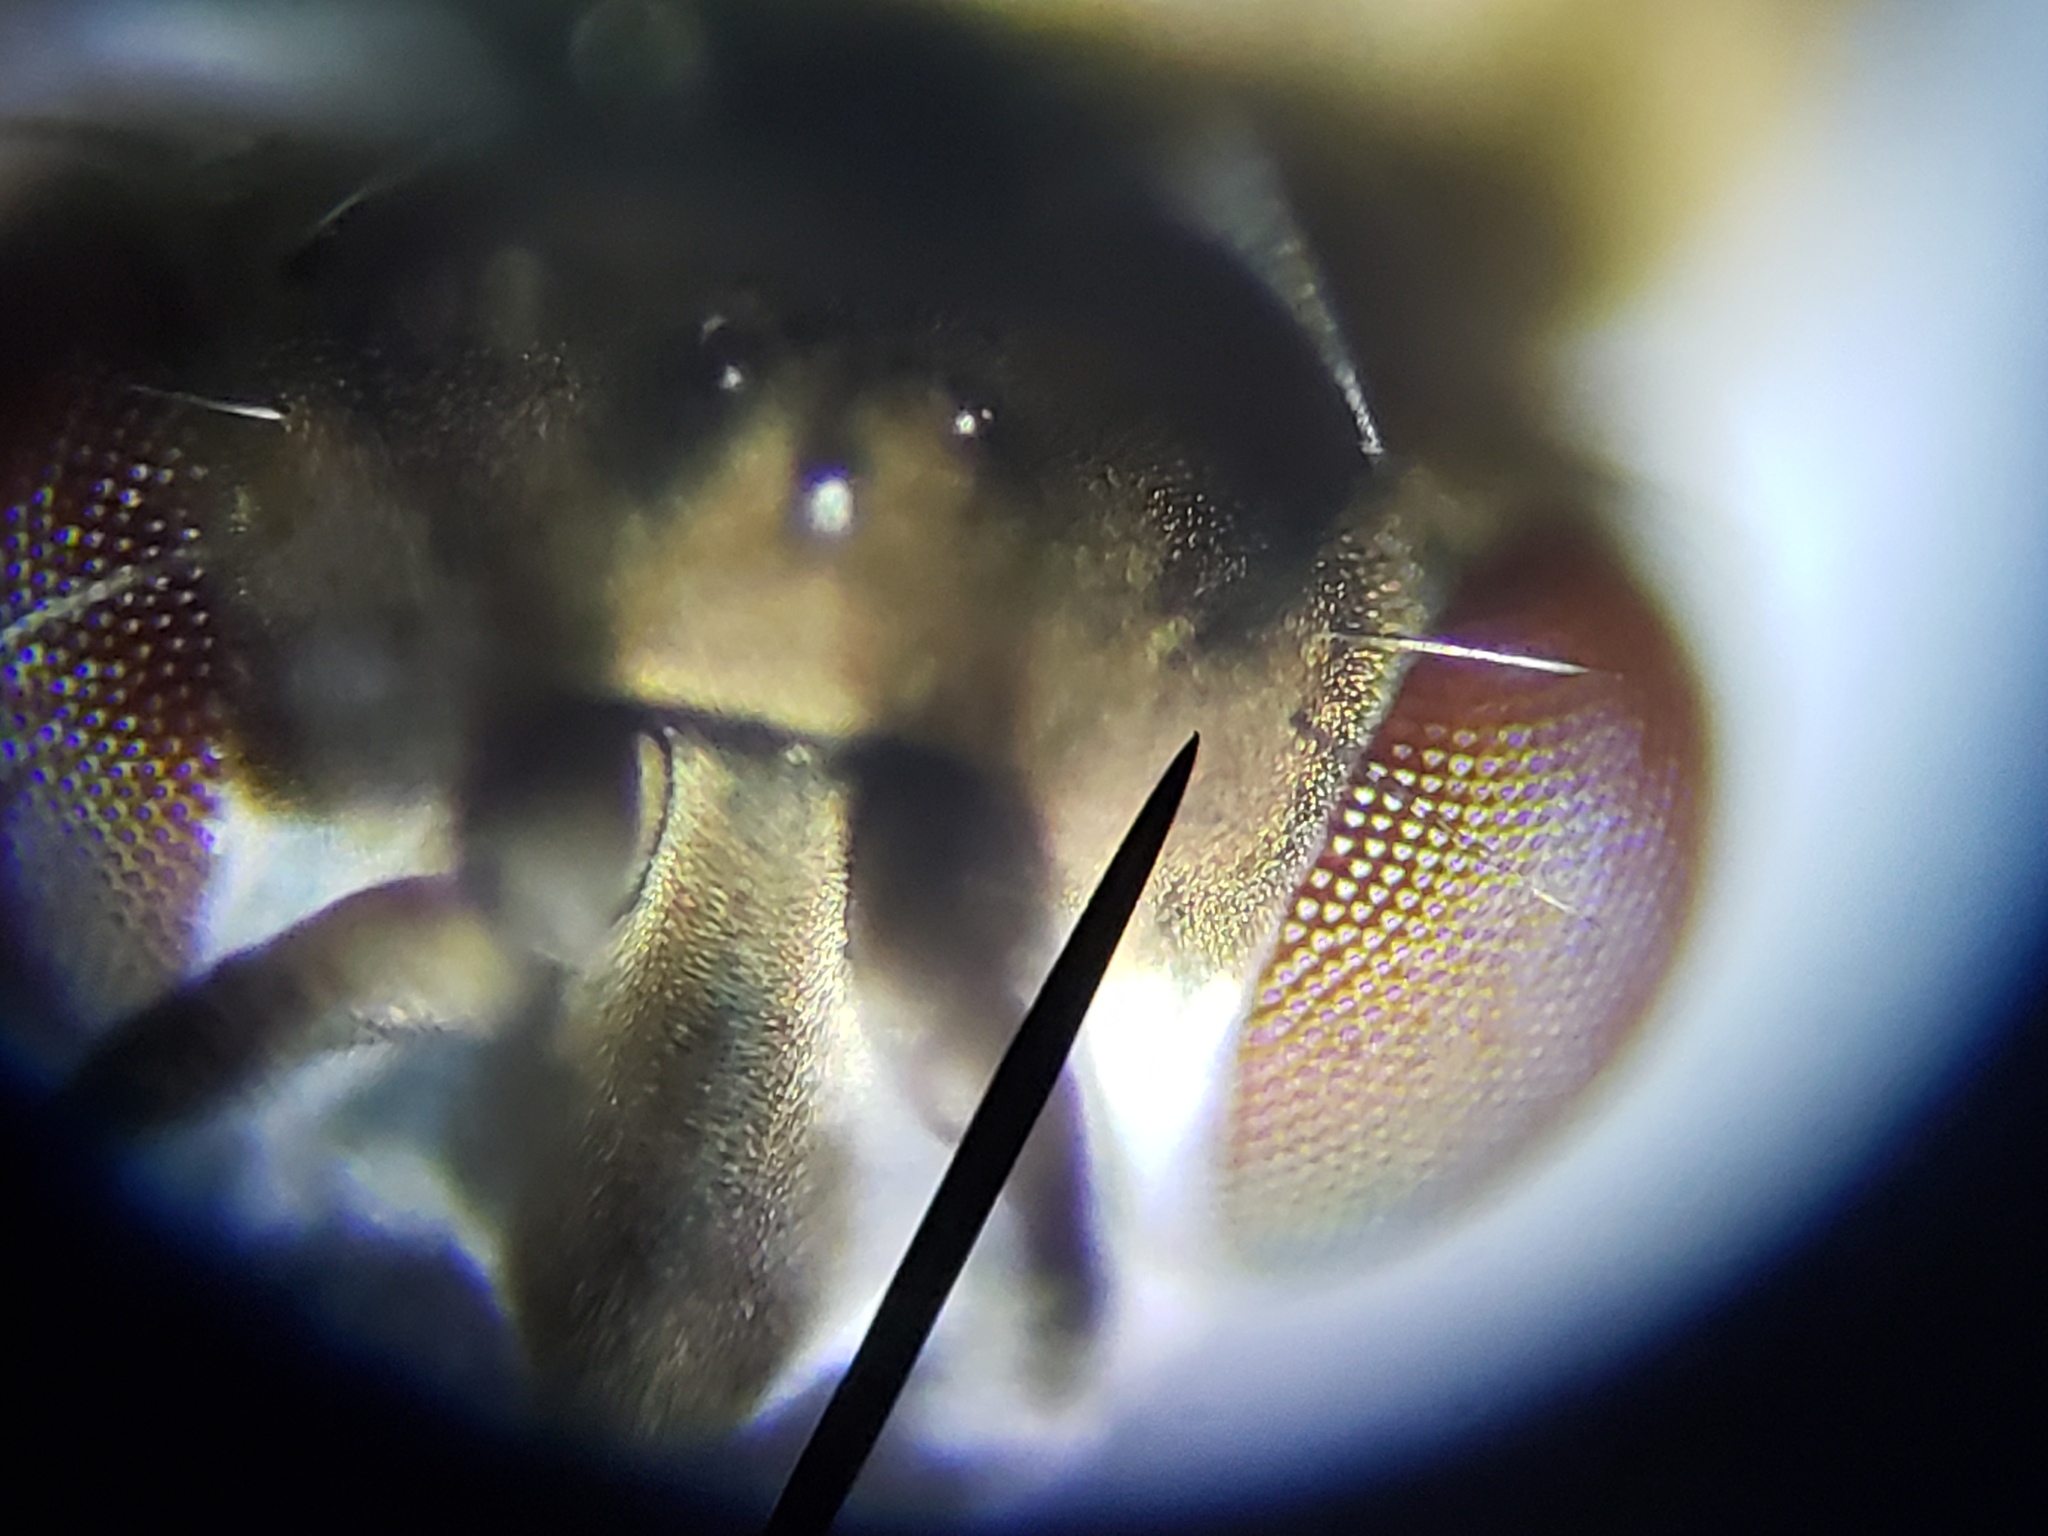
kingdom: Animalia
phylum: Arthropoda
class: Insecta
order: Diptera
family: Ephydridae
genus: Brachydeutera
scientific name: Brachydeutera neotropica
